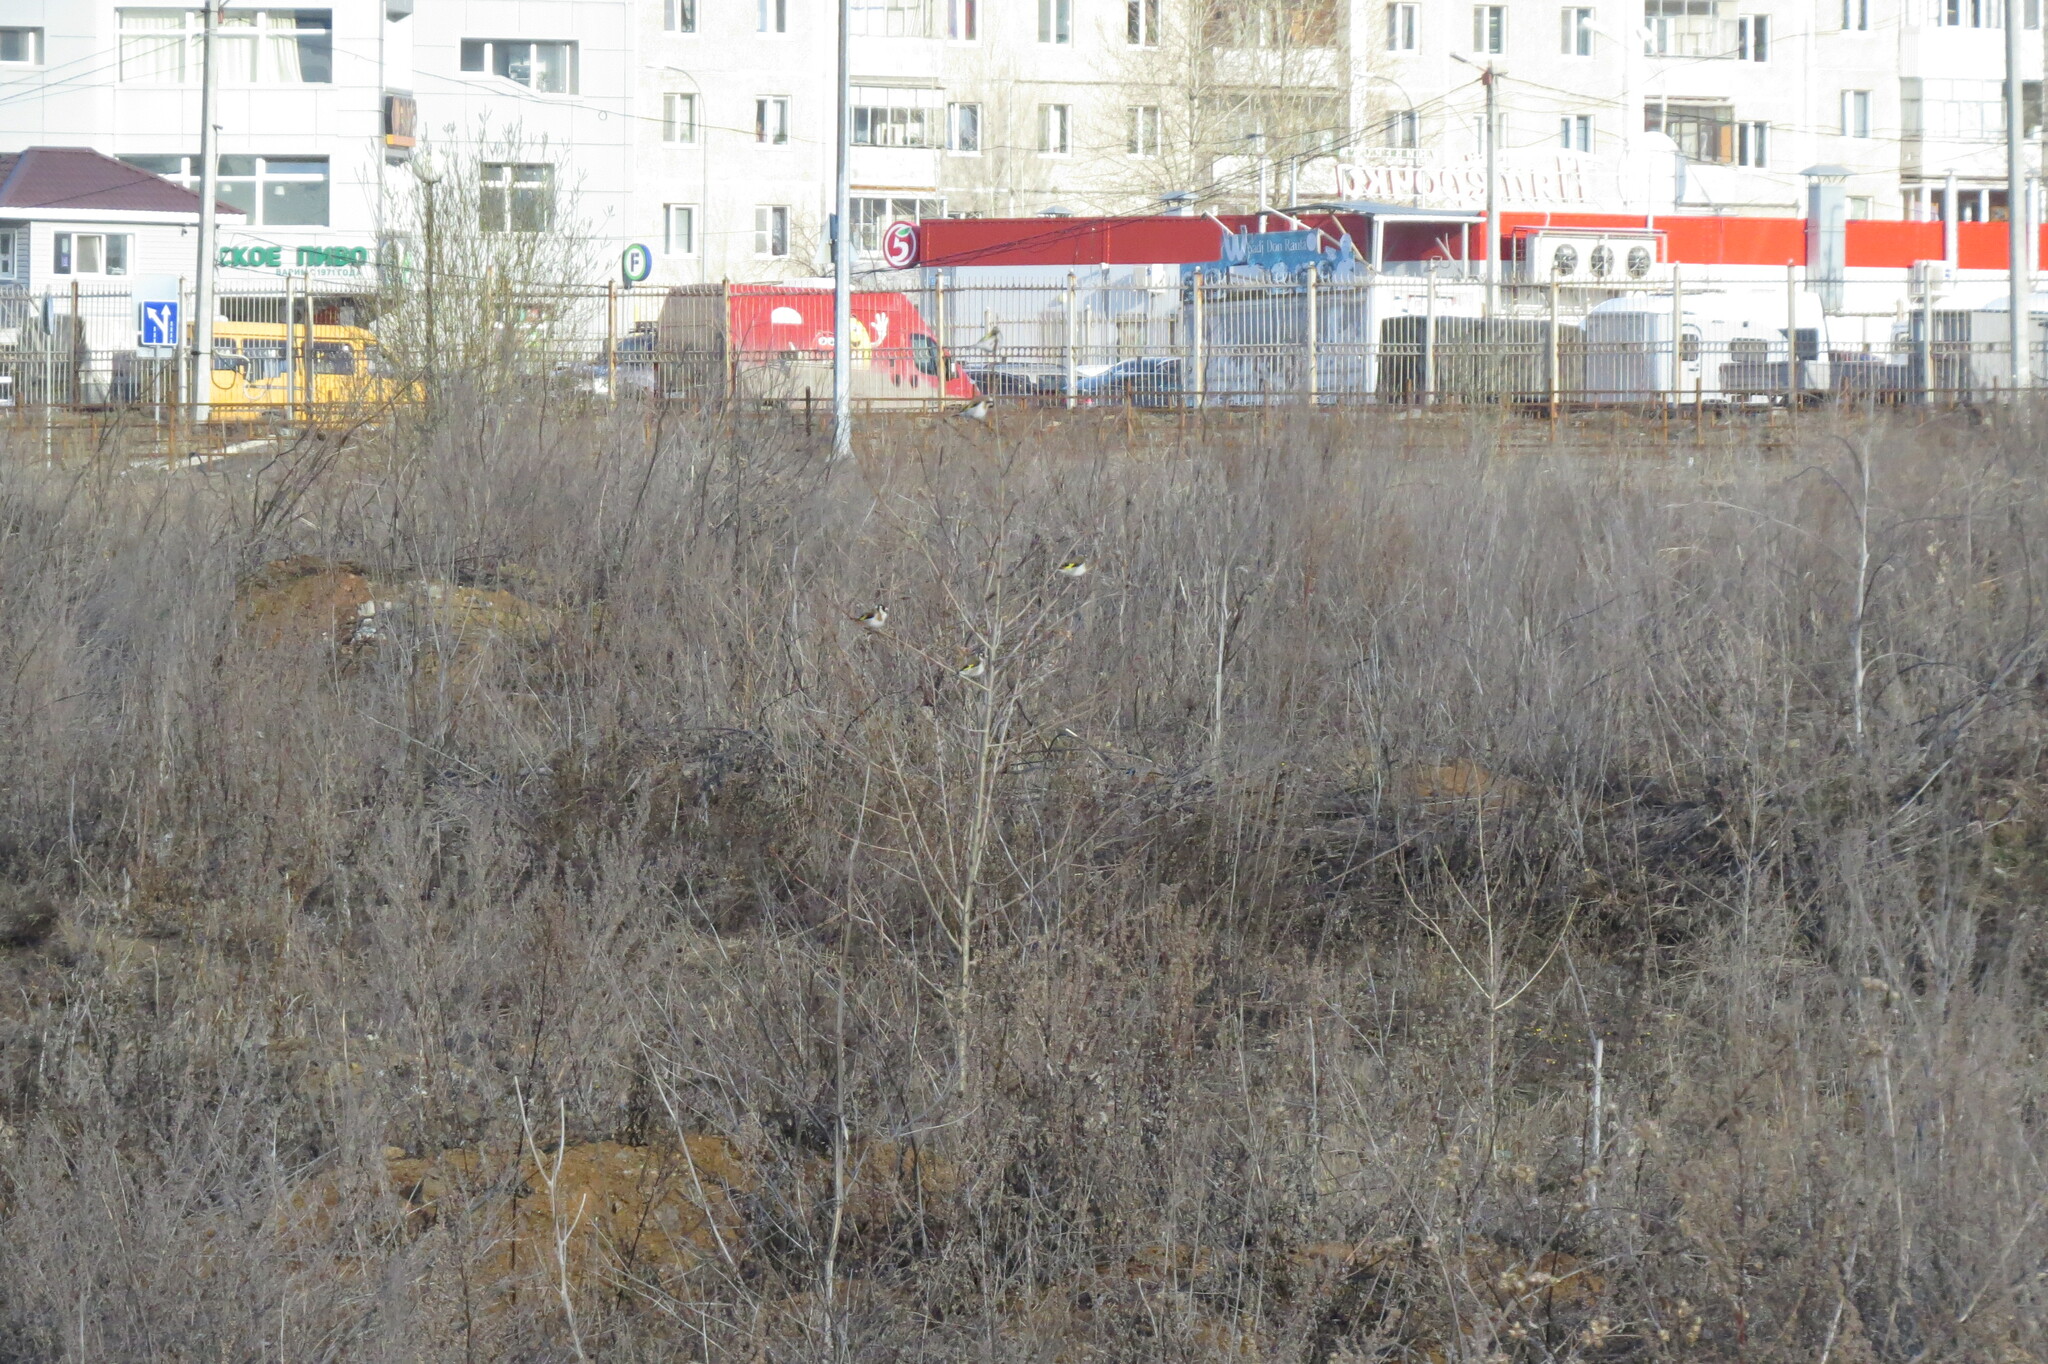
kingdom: Animalia
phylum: Chordata
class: Aves
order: Passeriformes
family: Fringillidae
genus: Carduelis
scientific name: Carduelis carduelis
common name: European goldfinch
